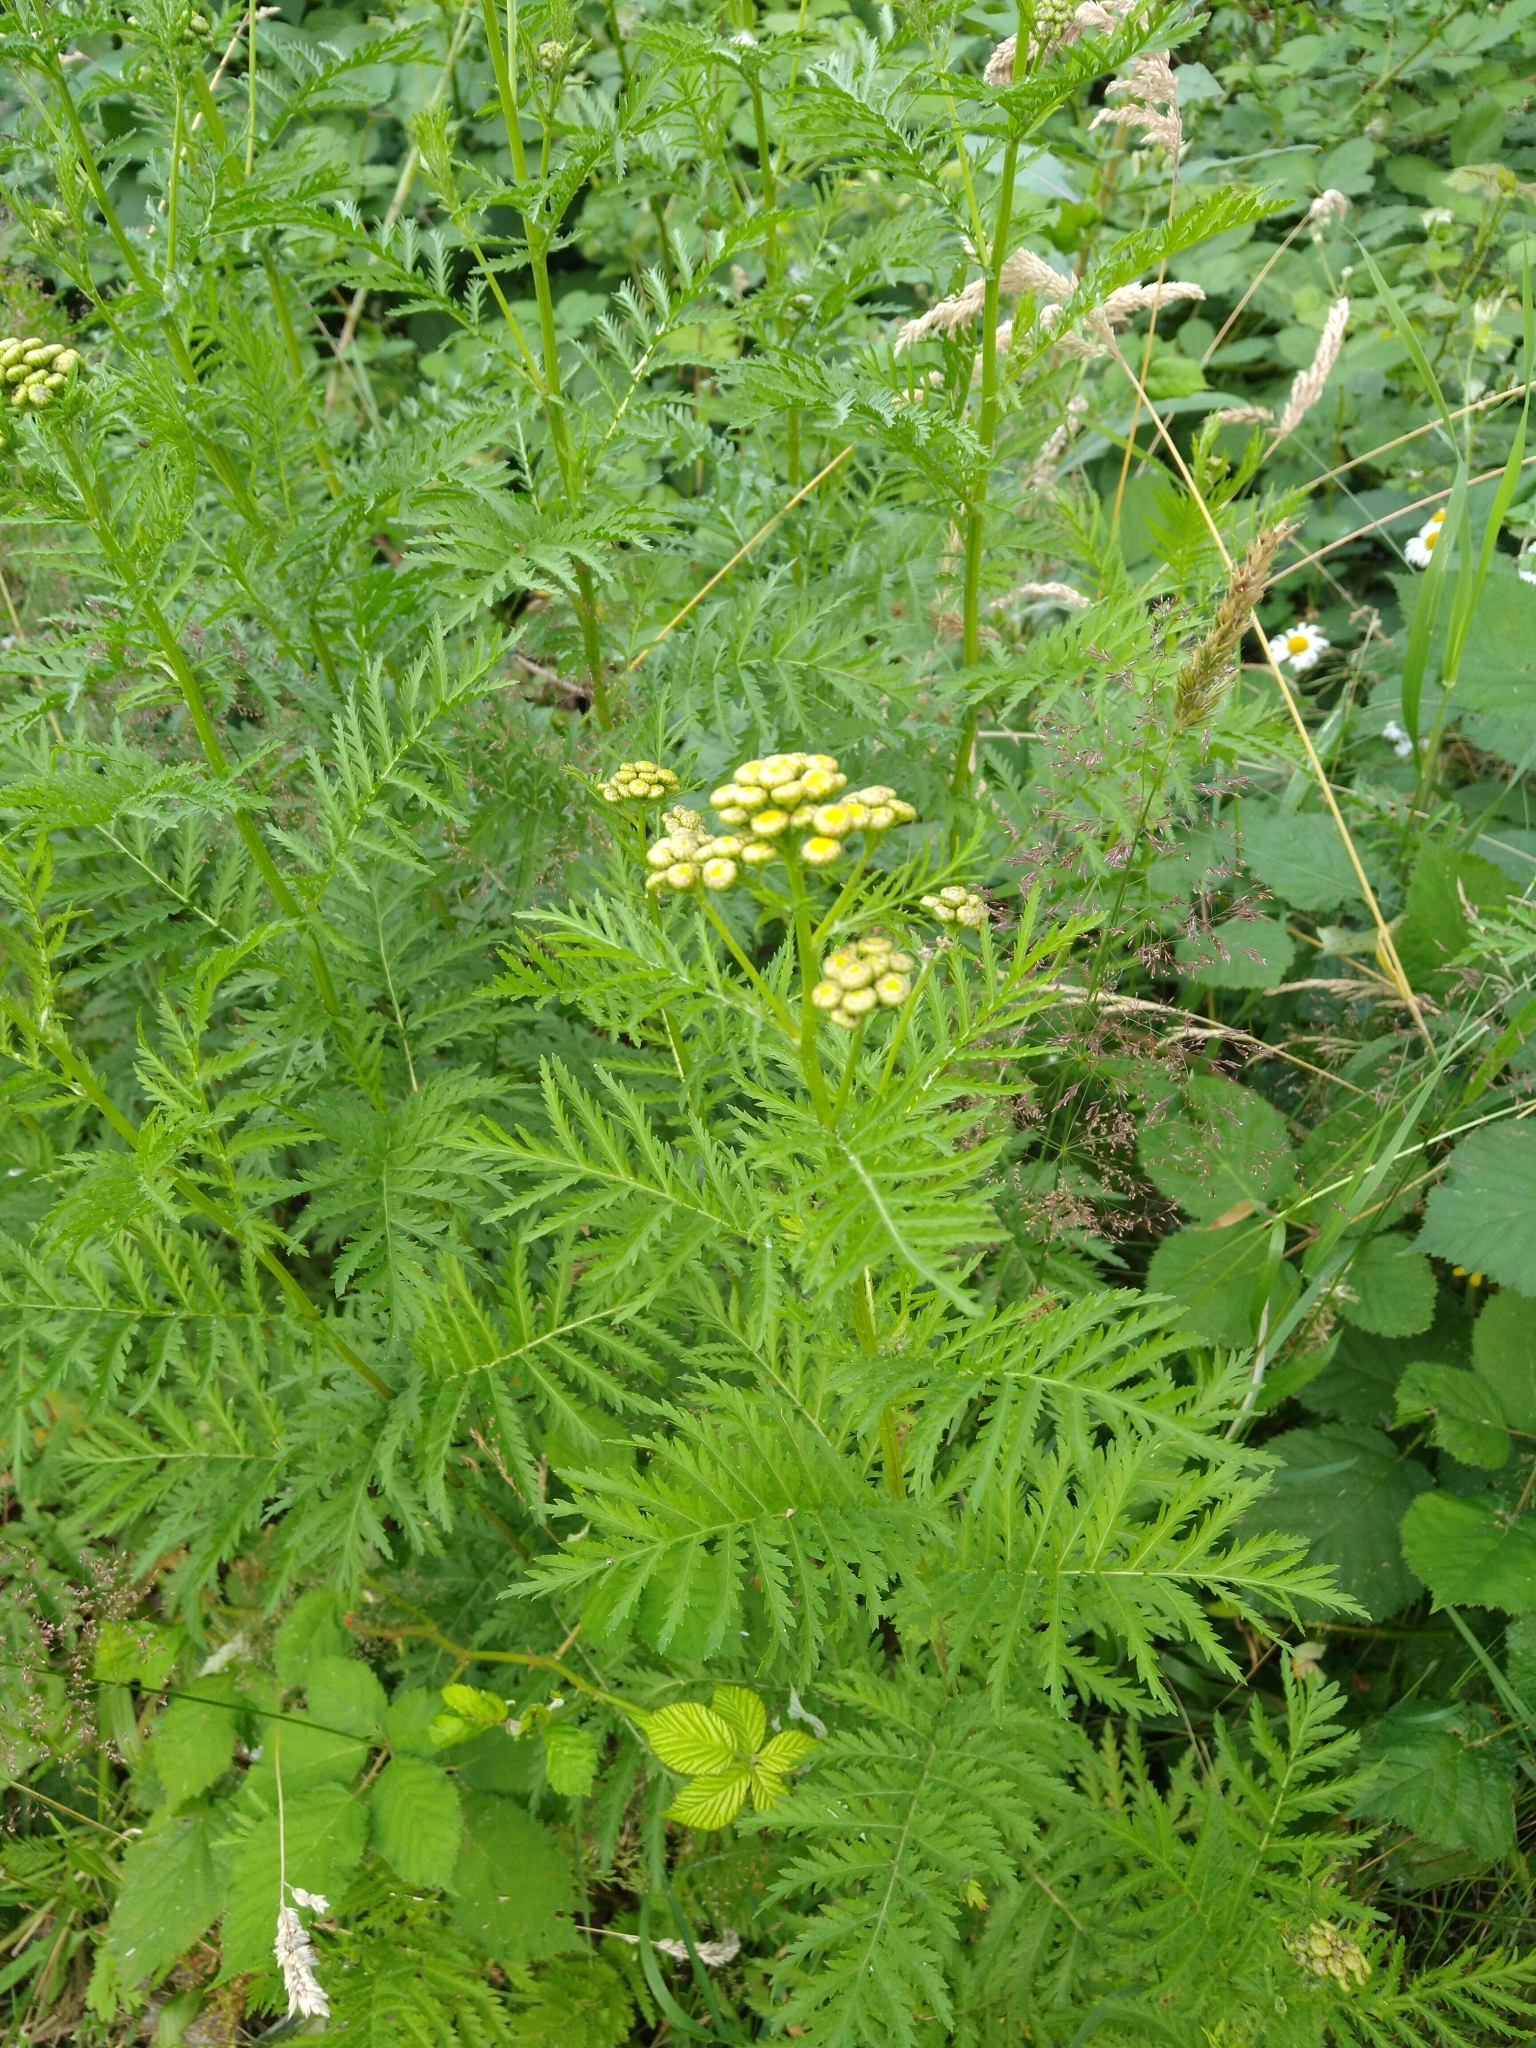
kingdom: Plantae
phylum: Tracheophyta
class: Magnoliopsida
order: Asterales
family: Asteraceae
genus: Tanacetum
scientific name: Tanacetum vulgare
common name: Common tansy
